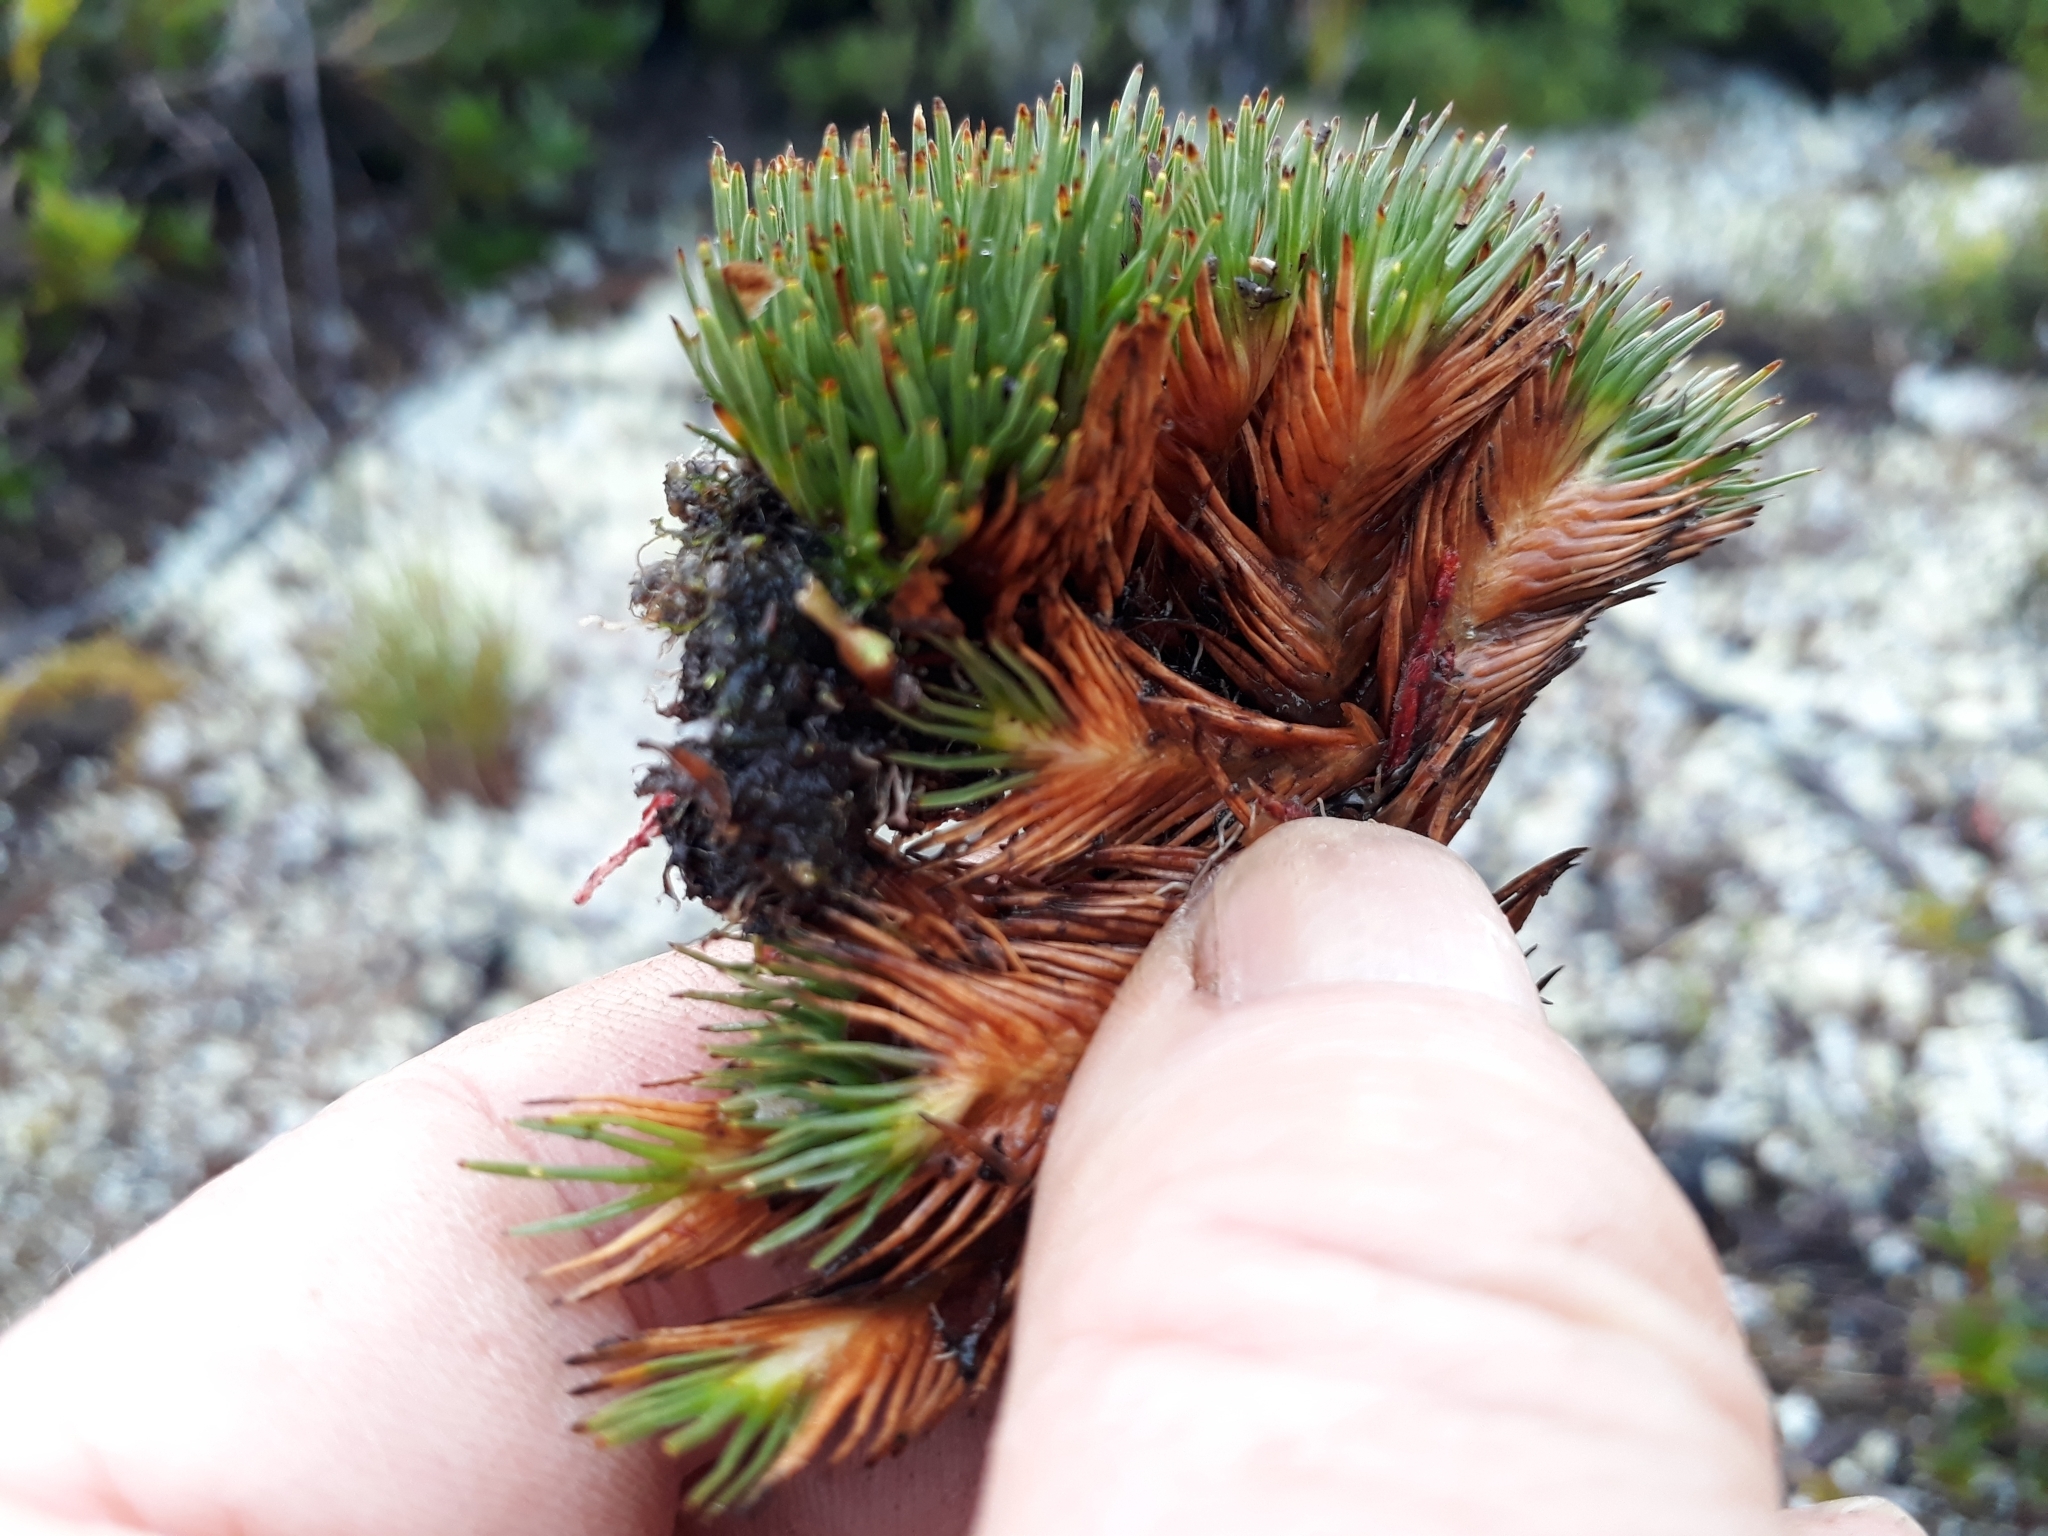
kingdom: Plantae
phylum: Tracheophyta
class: Liliopsida
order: Poales
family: Cyperaceae
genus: Oreobolus
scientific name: Oreobolus pectinatus
